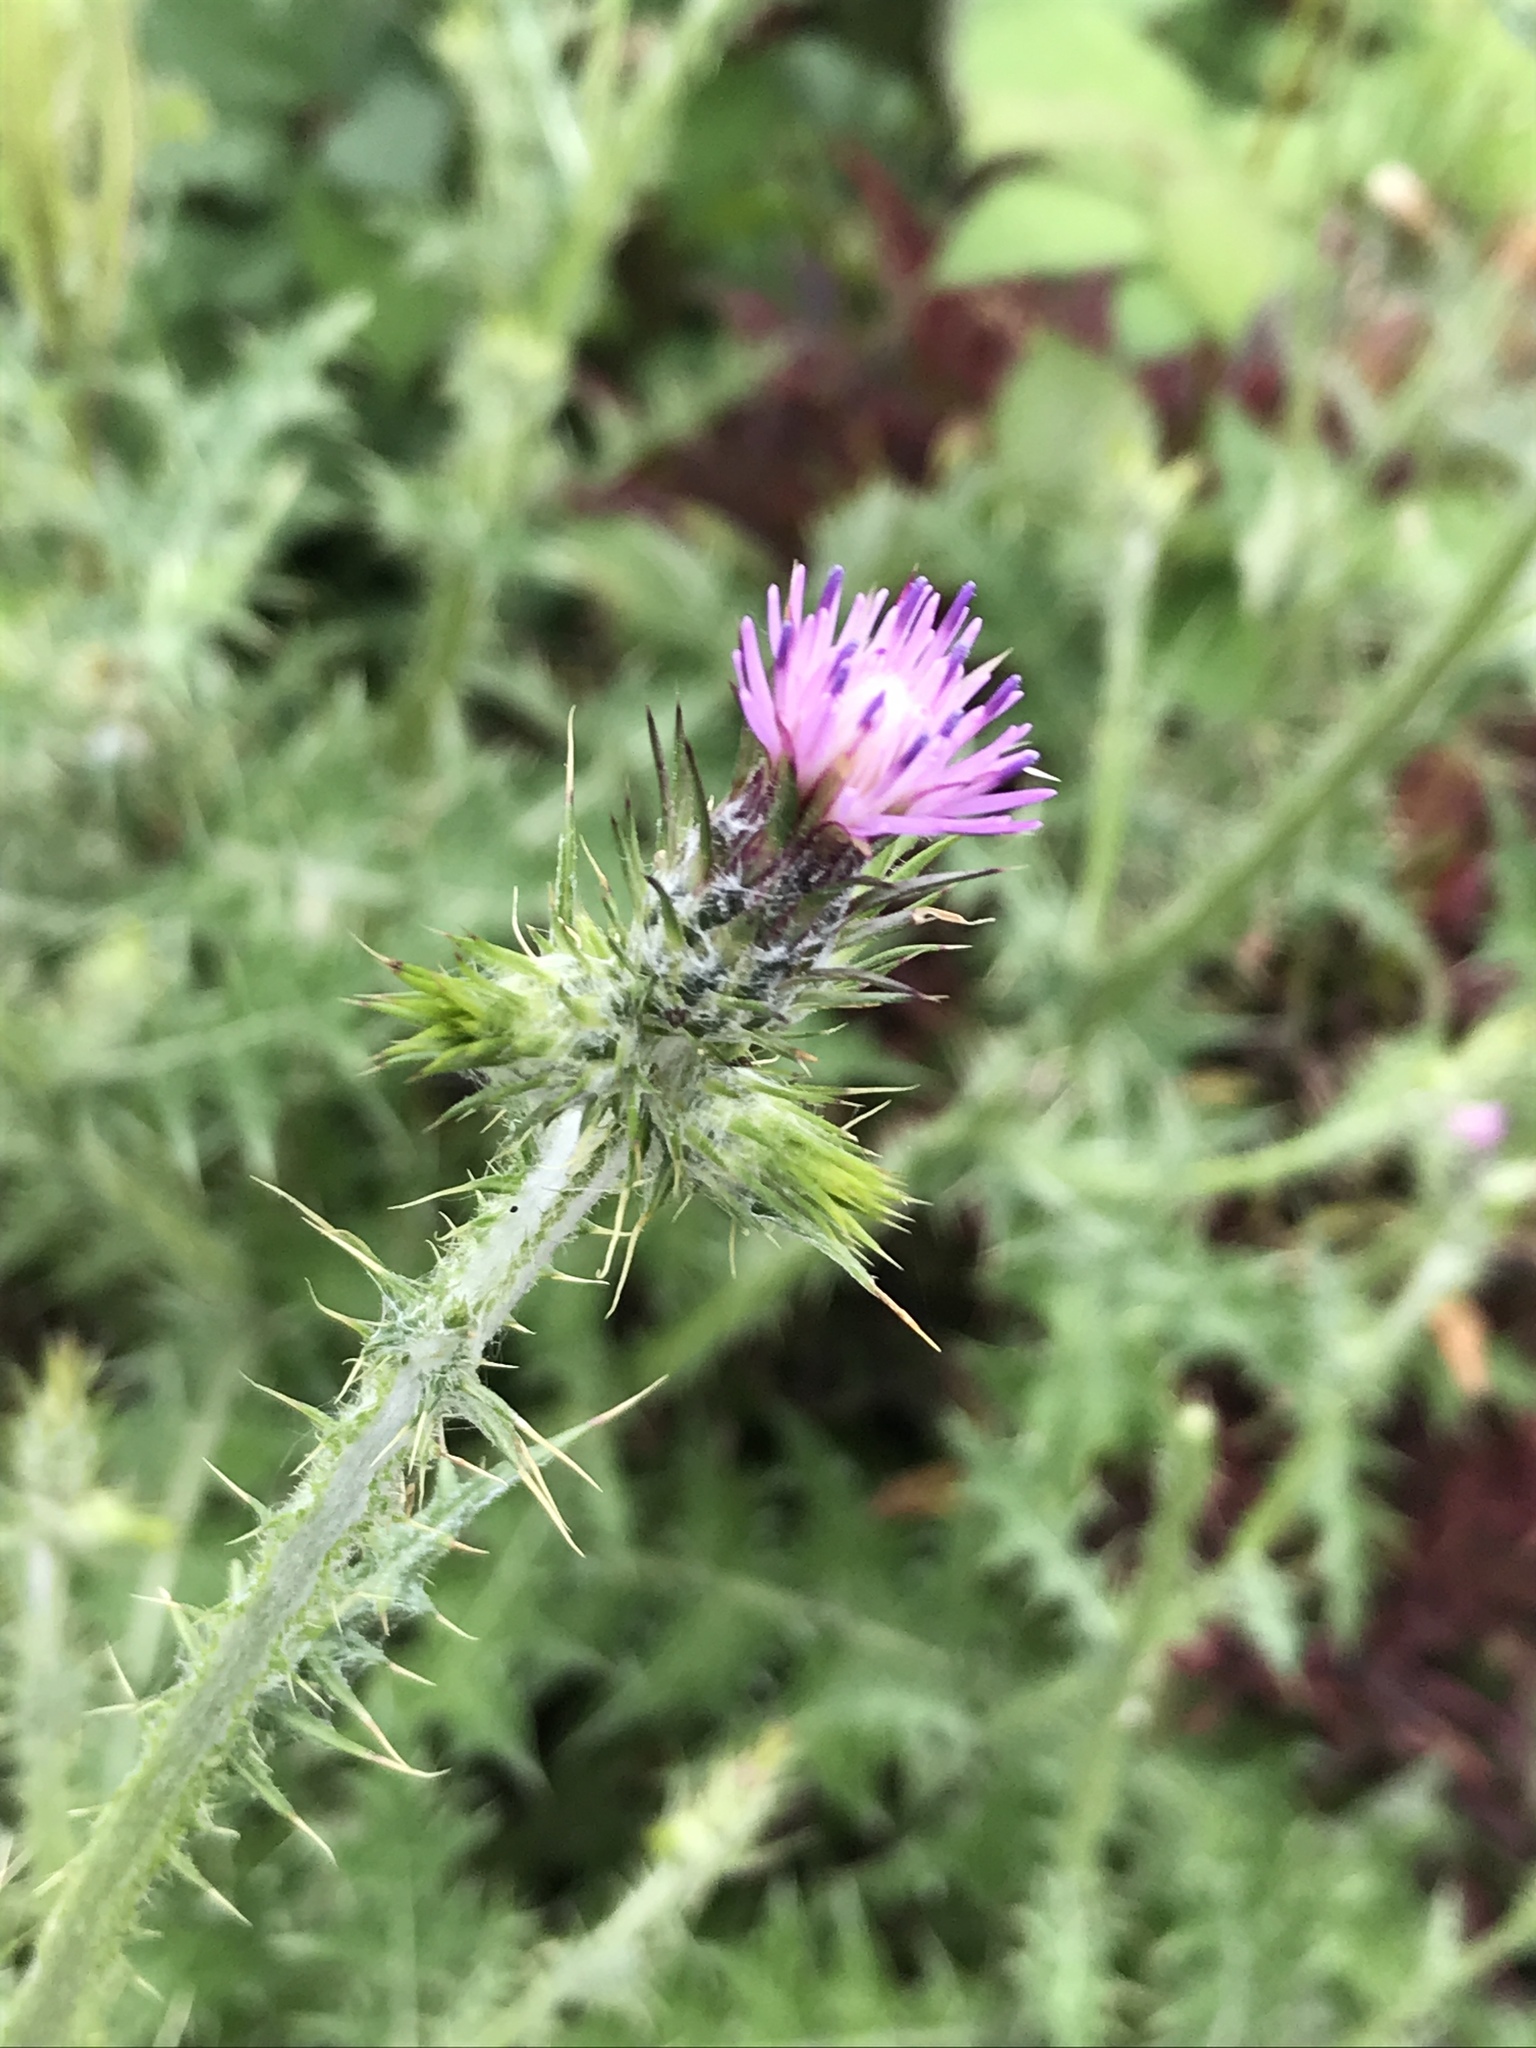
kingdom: Plantae
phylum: Tracheophyta
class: Magnoliopsida
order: Asterales
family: Asteraceae
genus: Carduus
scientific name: Carduus pycnocephalus
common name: Plymouth thistle
